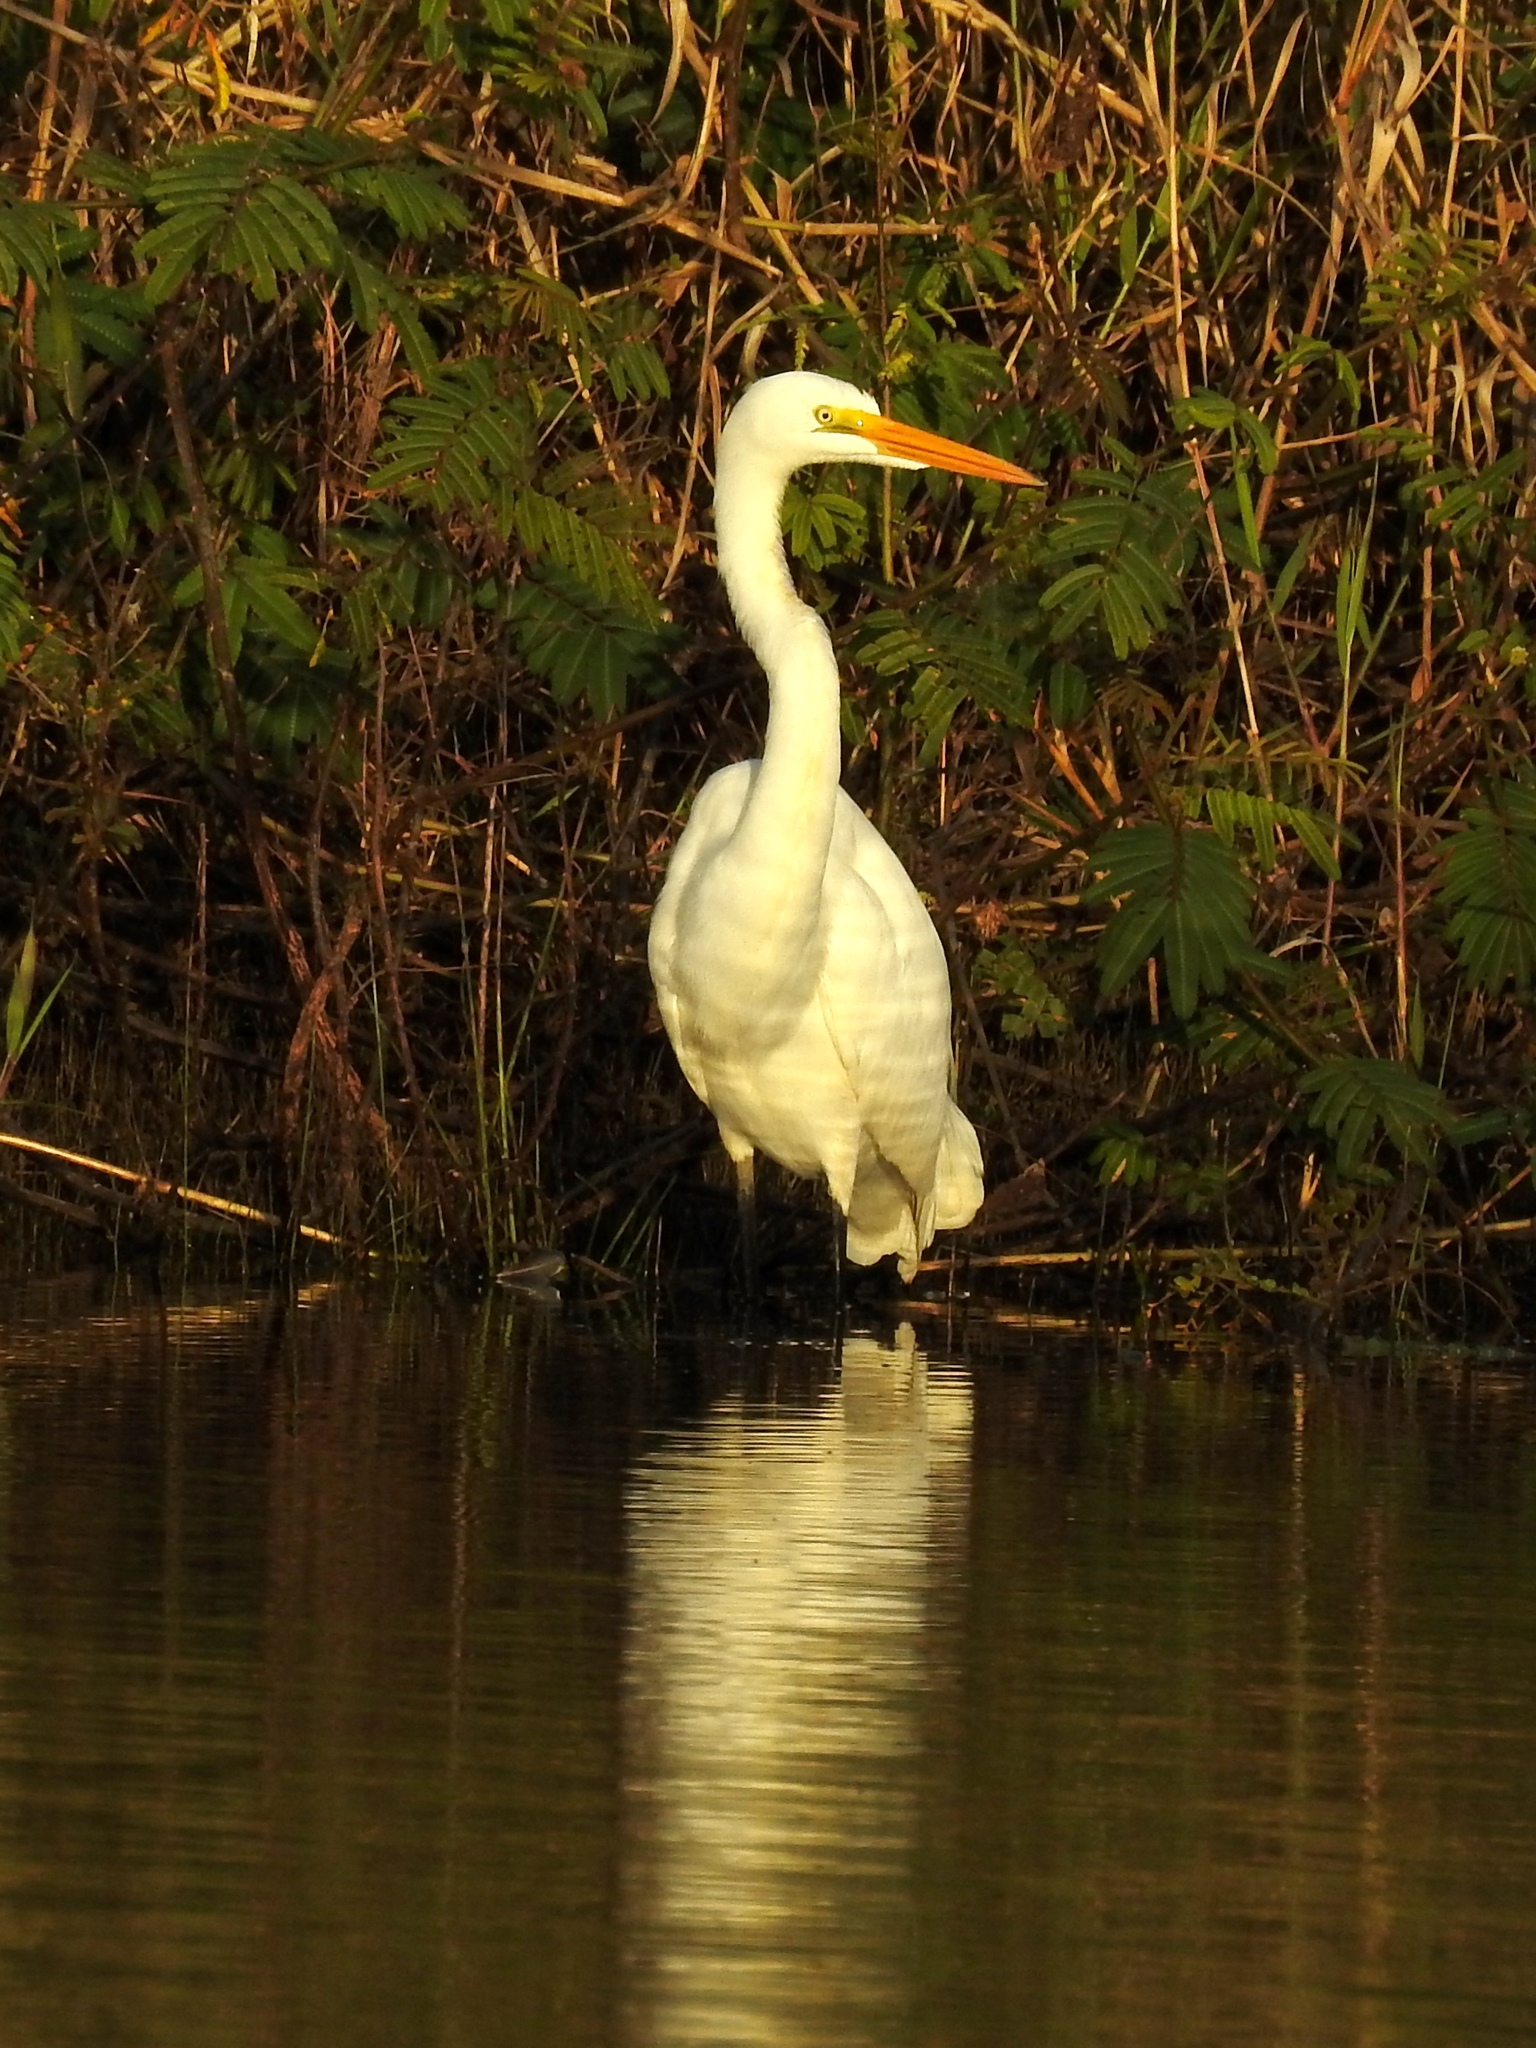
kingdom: Animalia
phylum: Chordata
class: Aves
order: Pelecaniformes
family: Ardeidae
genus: Ardea
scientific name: Ardea alba
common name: Great egret
